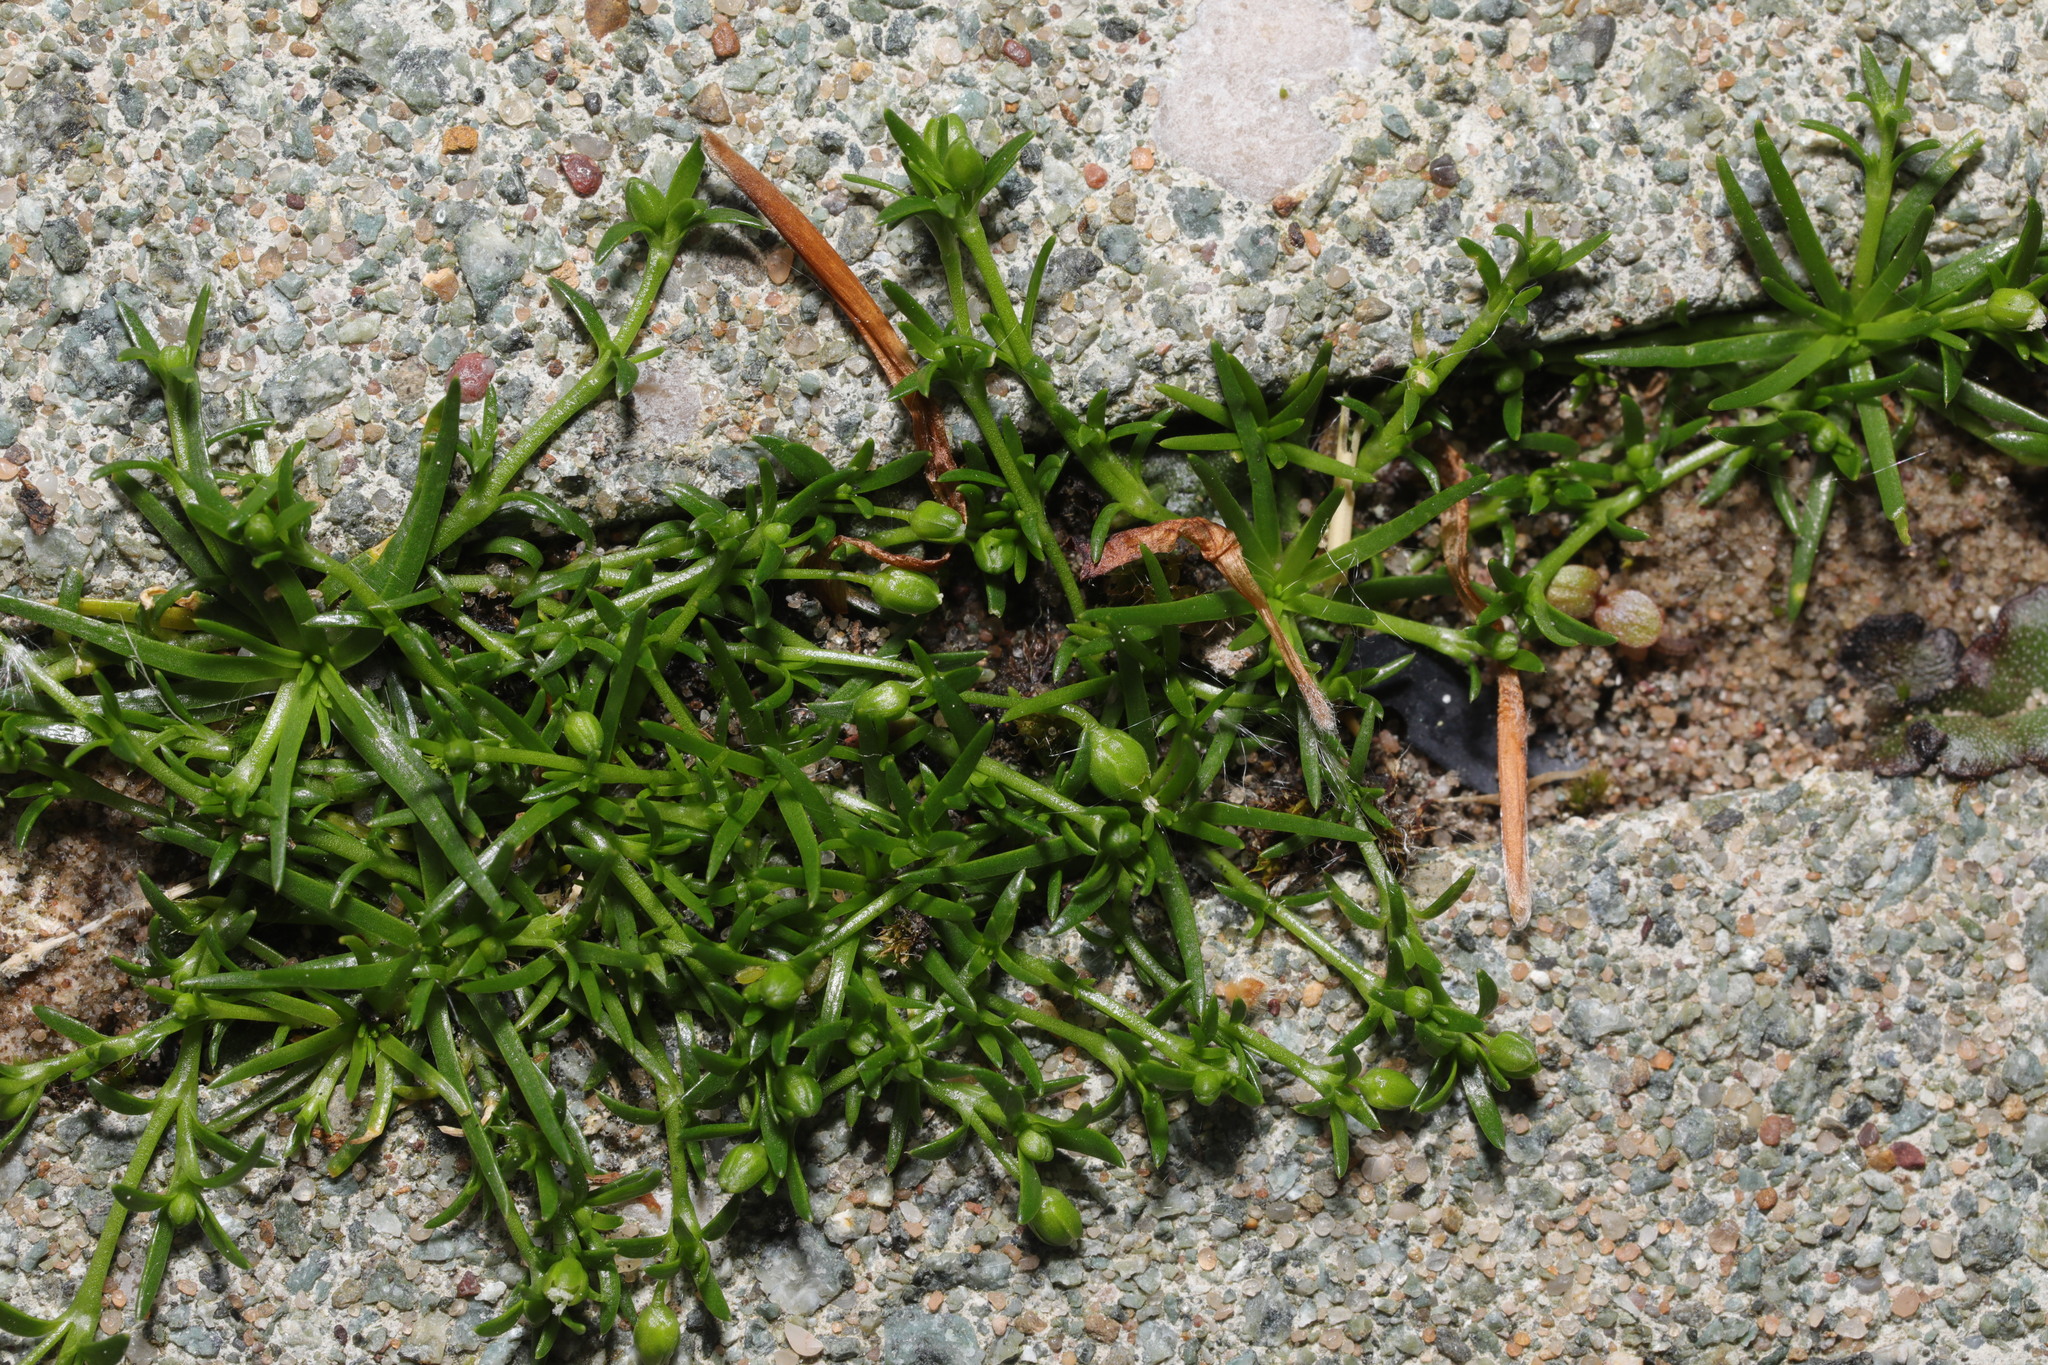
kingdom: Plantae
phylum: Tracheophyta
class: Magnoliopsida
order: Caryophyllales
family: Caryophyllaceae
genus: Sagina
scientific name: Sagina procumbens
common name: Procumbent pearlwort
